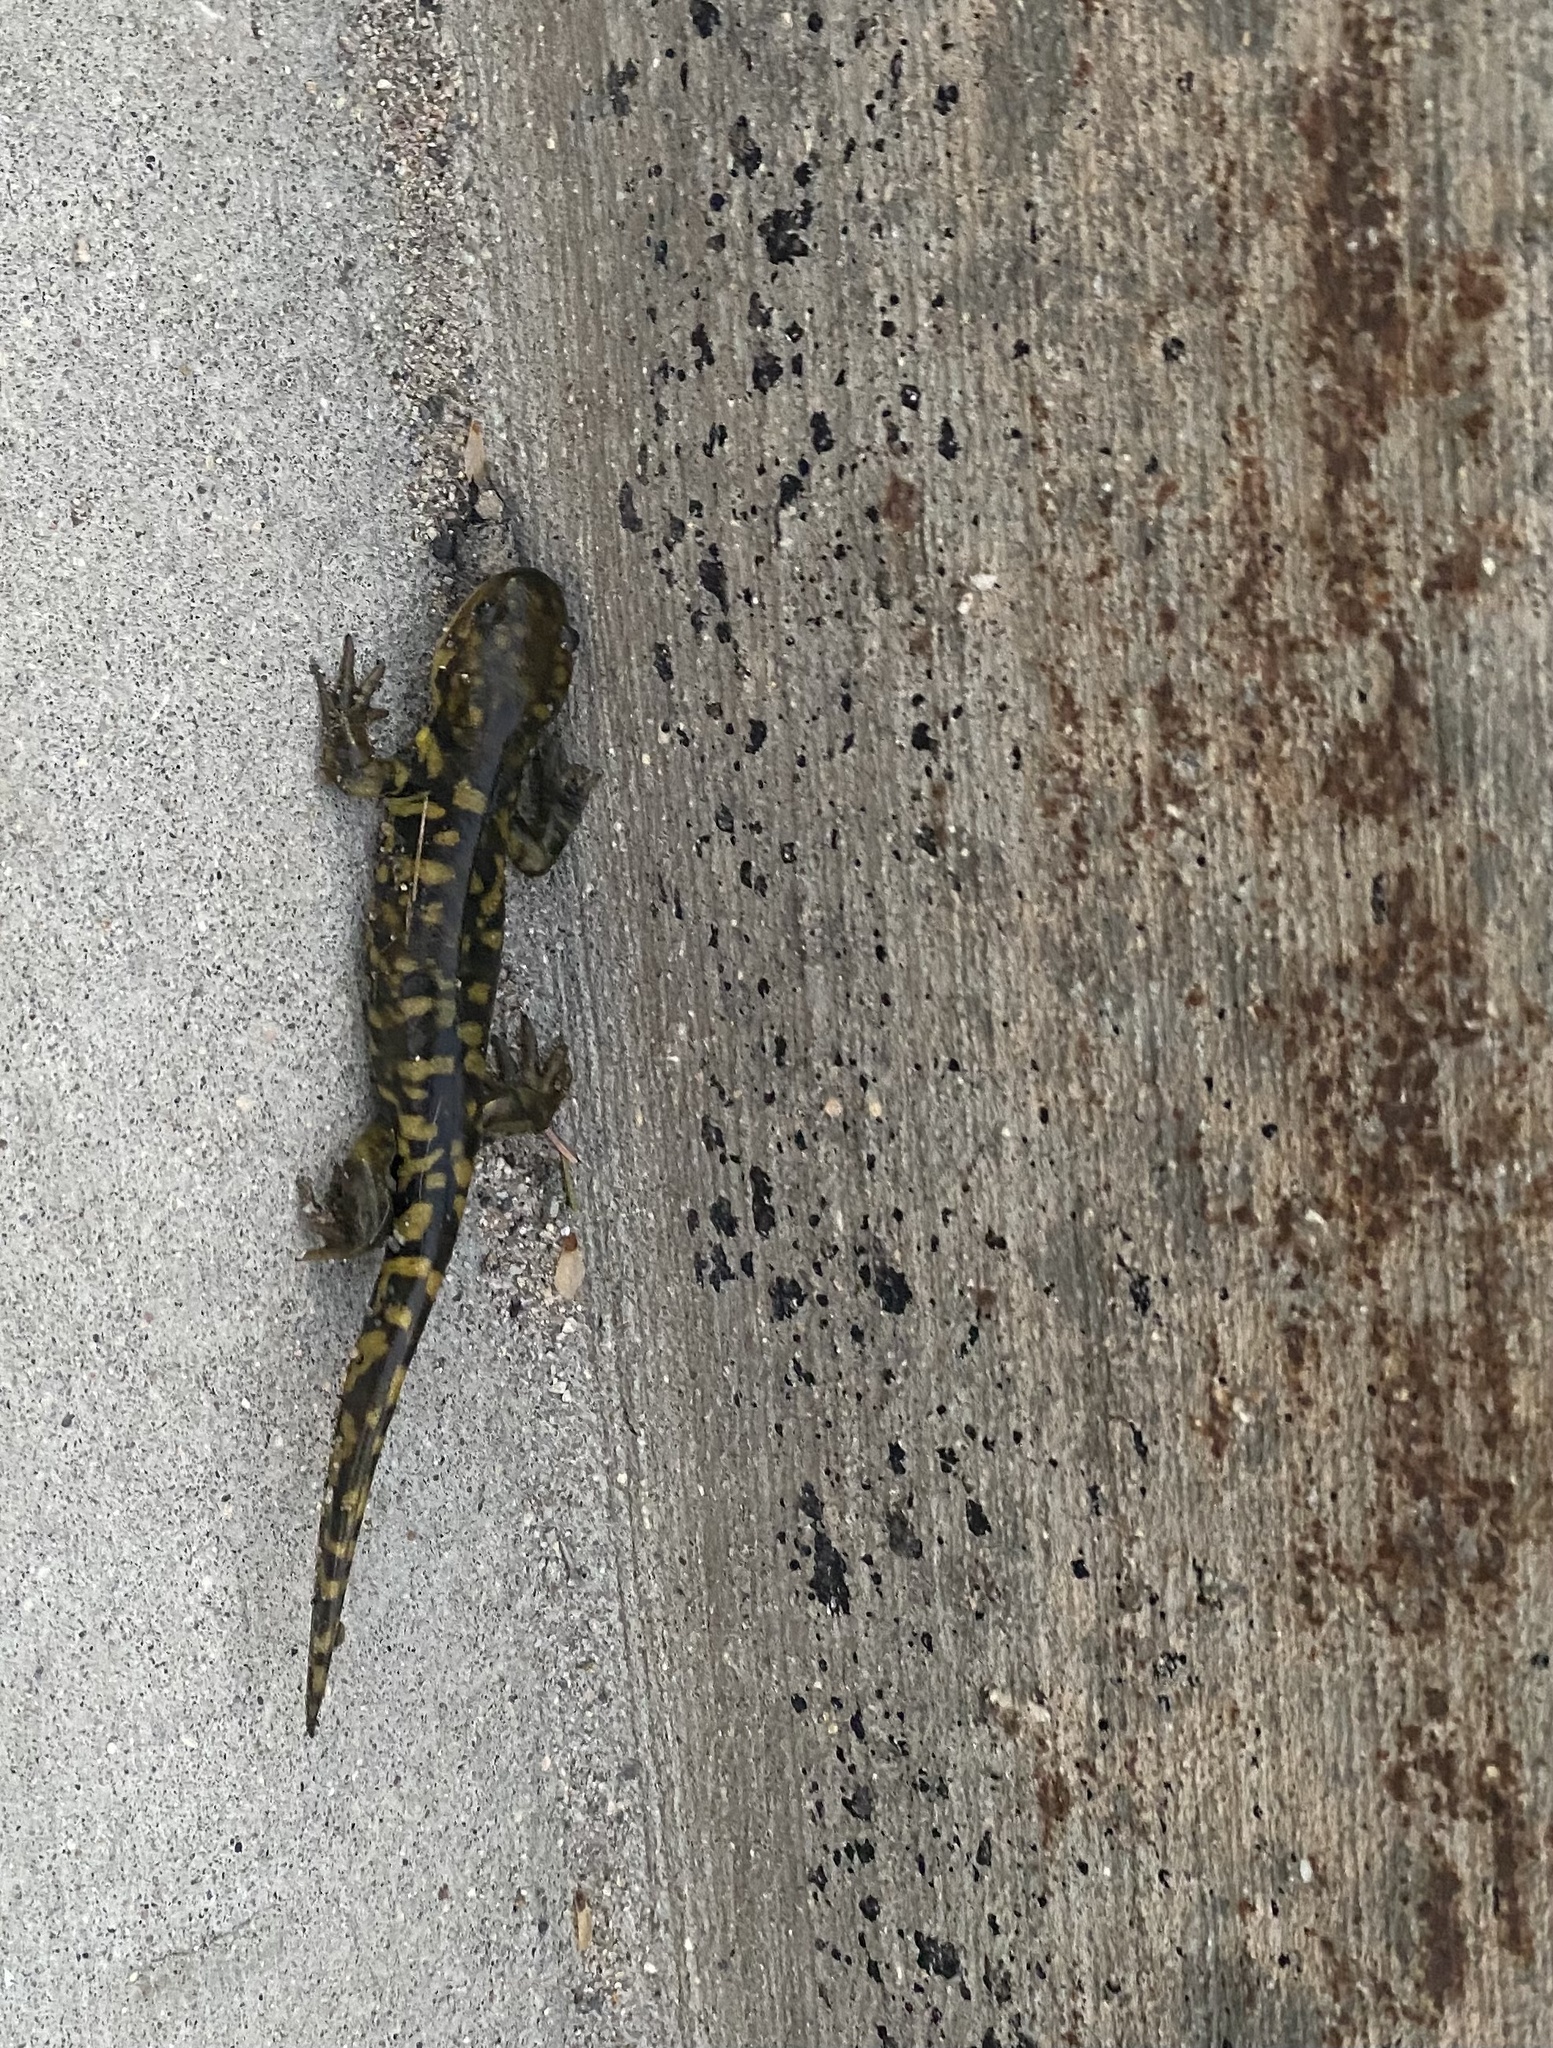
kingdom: Animalia
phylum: Chordata
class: Amphibia
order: Caudata
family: Ambystomatidae
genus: Ambystoma
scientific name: Ambystoma mavortium
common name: Western tiger salamander
